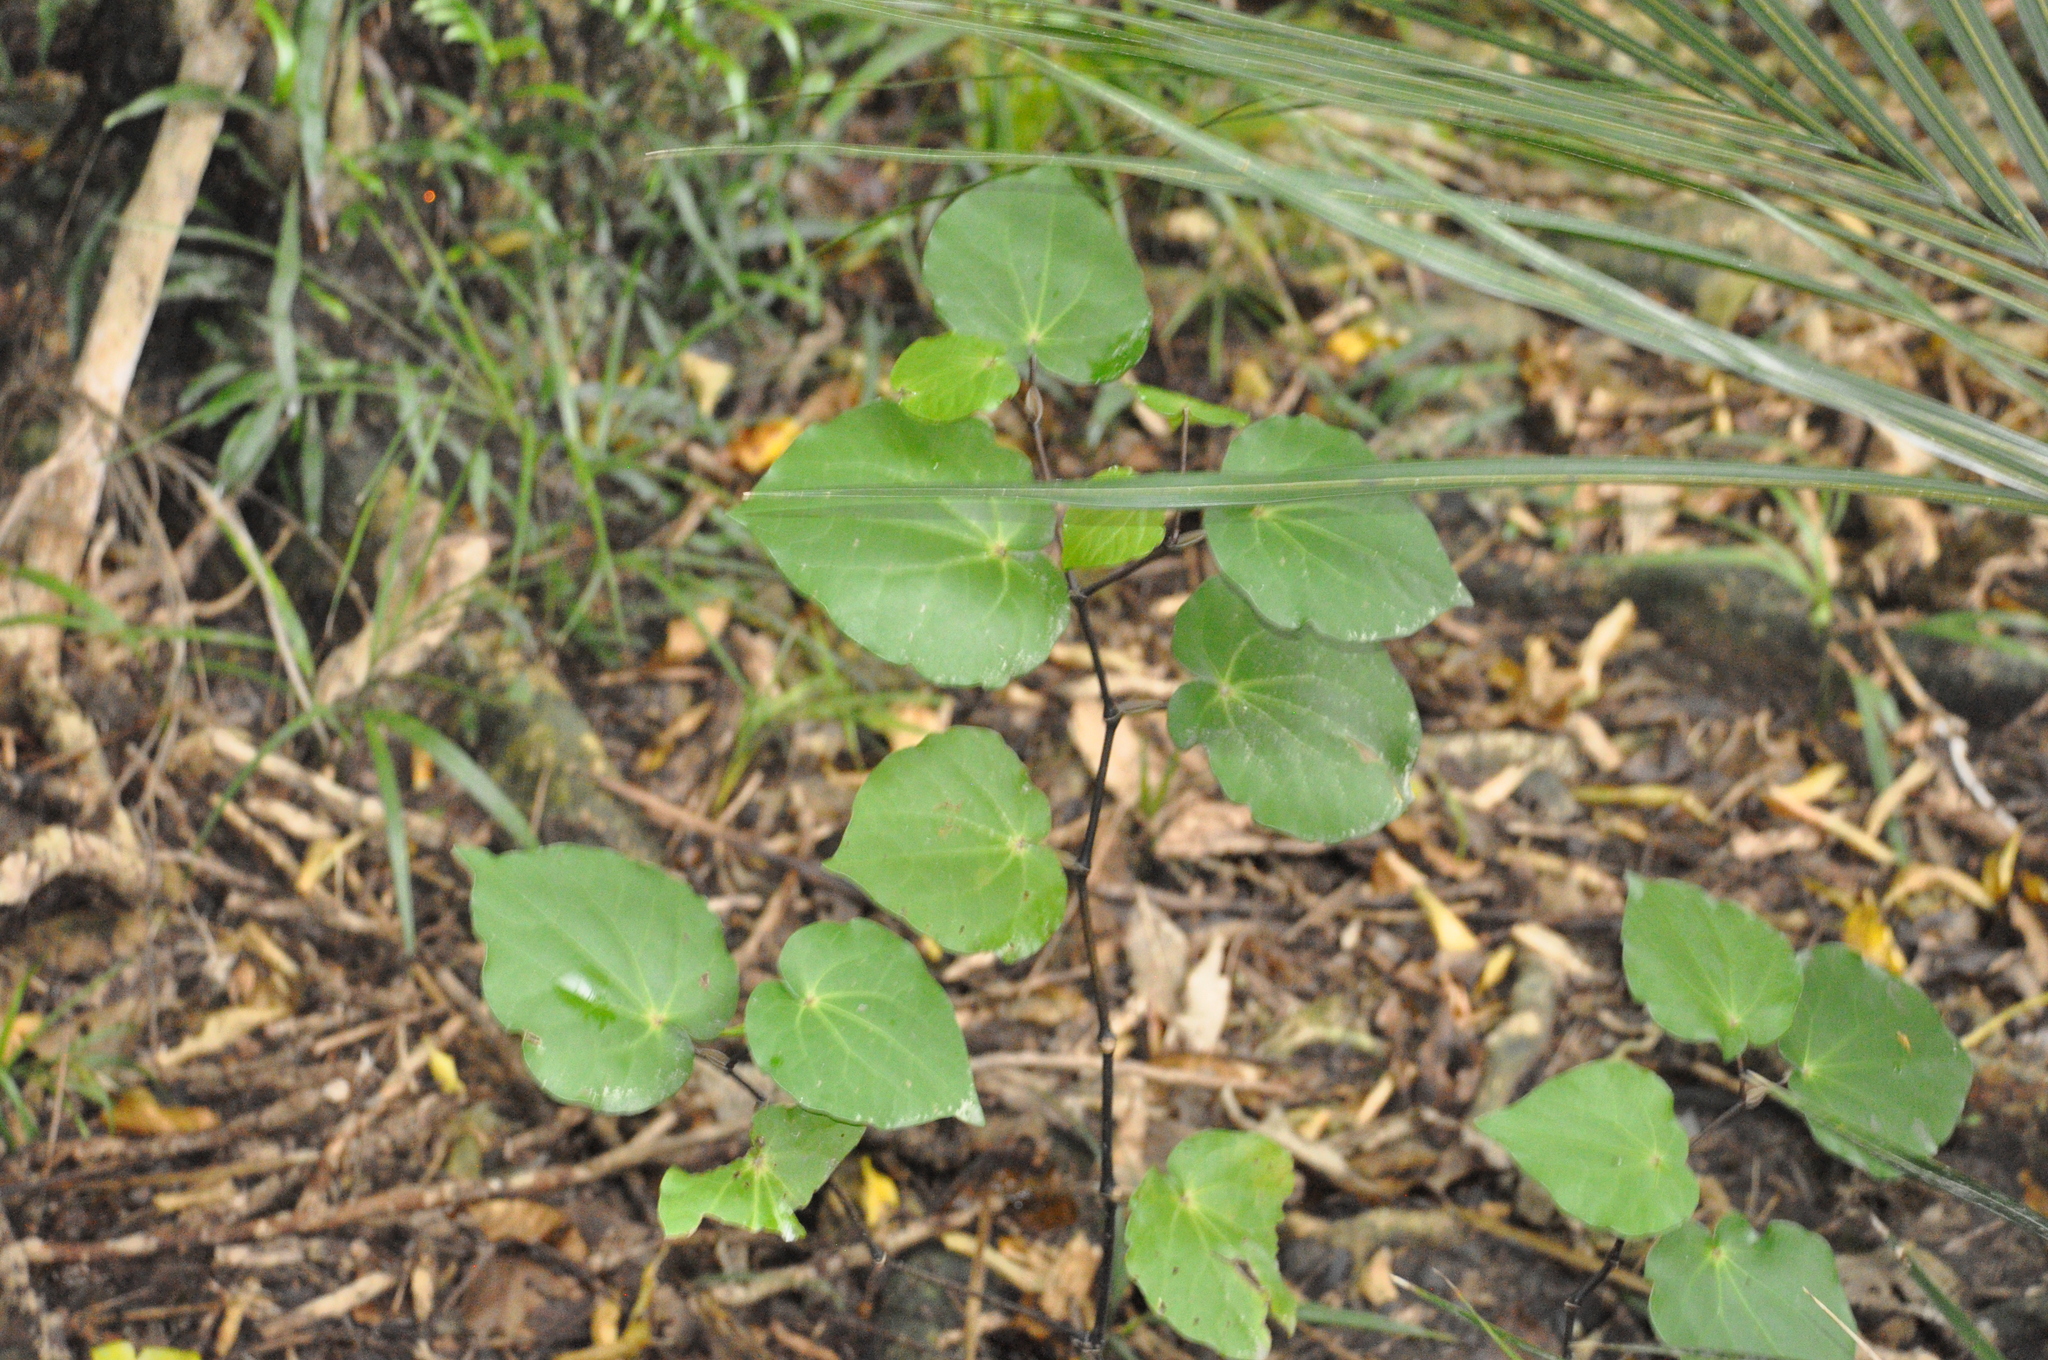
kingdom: Plantae
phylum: Tracheophyta
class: Magnoliopsida
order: Piperales
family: Piperaceae
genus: Macropiper
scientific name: Macropiper excelsum
